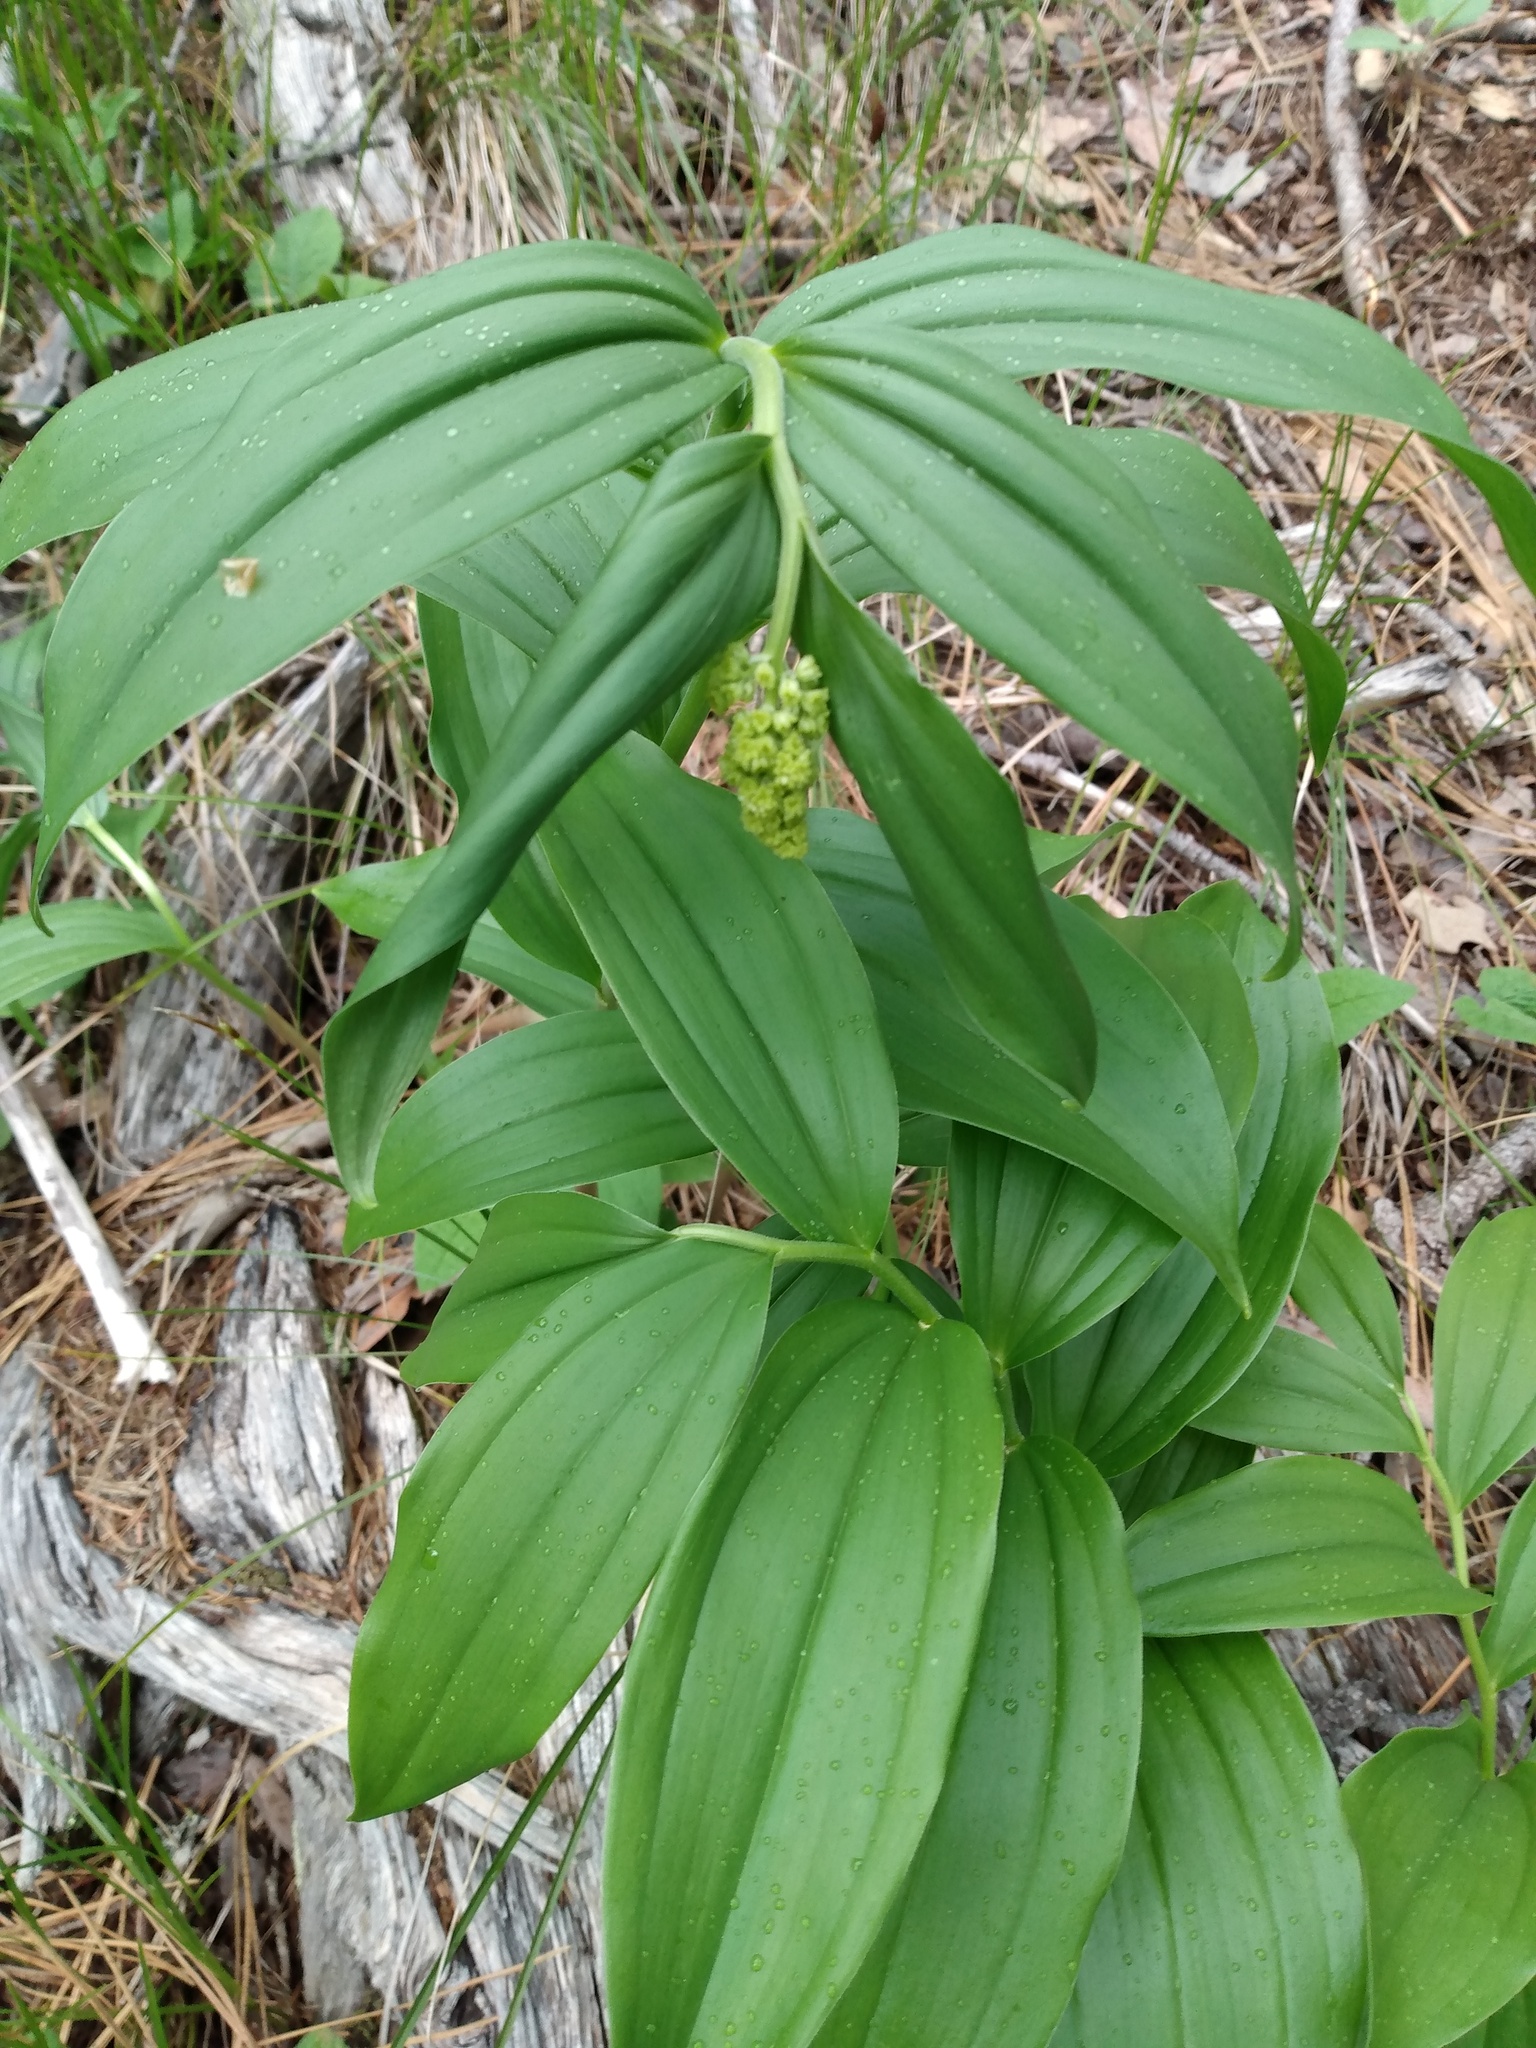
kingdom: Plantae
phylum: Tracheophyta
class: Liliopsida
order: Asparagales
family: Asparagaceae
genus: Maianthemum
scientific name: Maianthemum racemosum
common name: False spikenard
